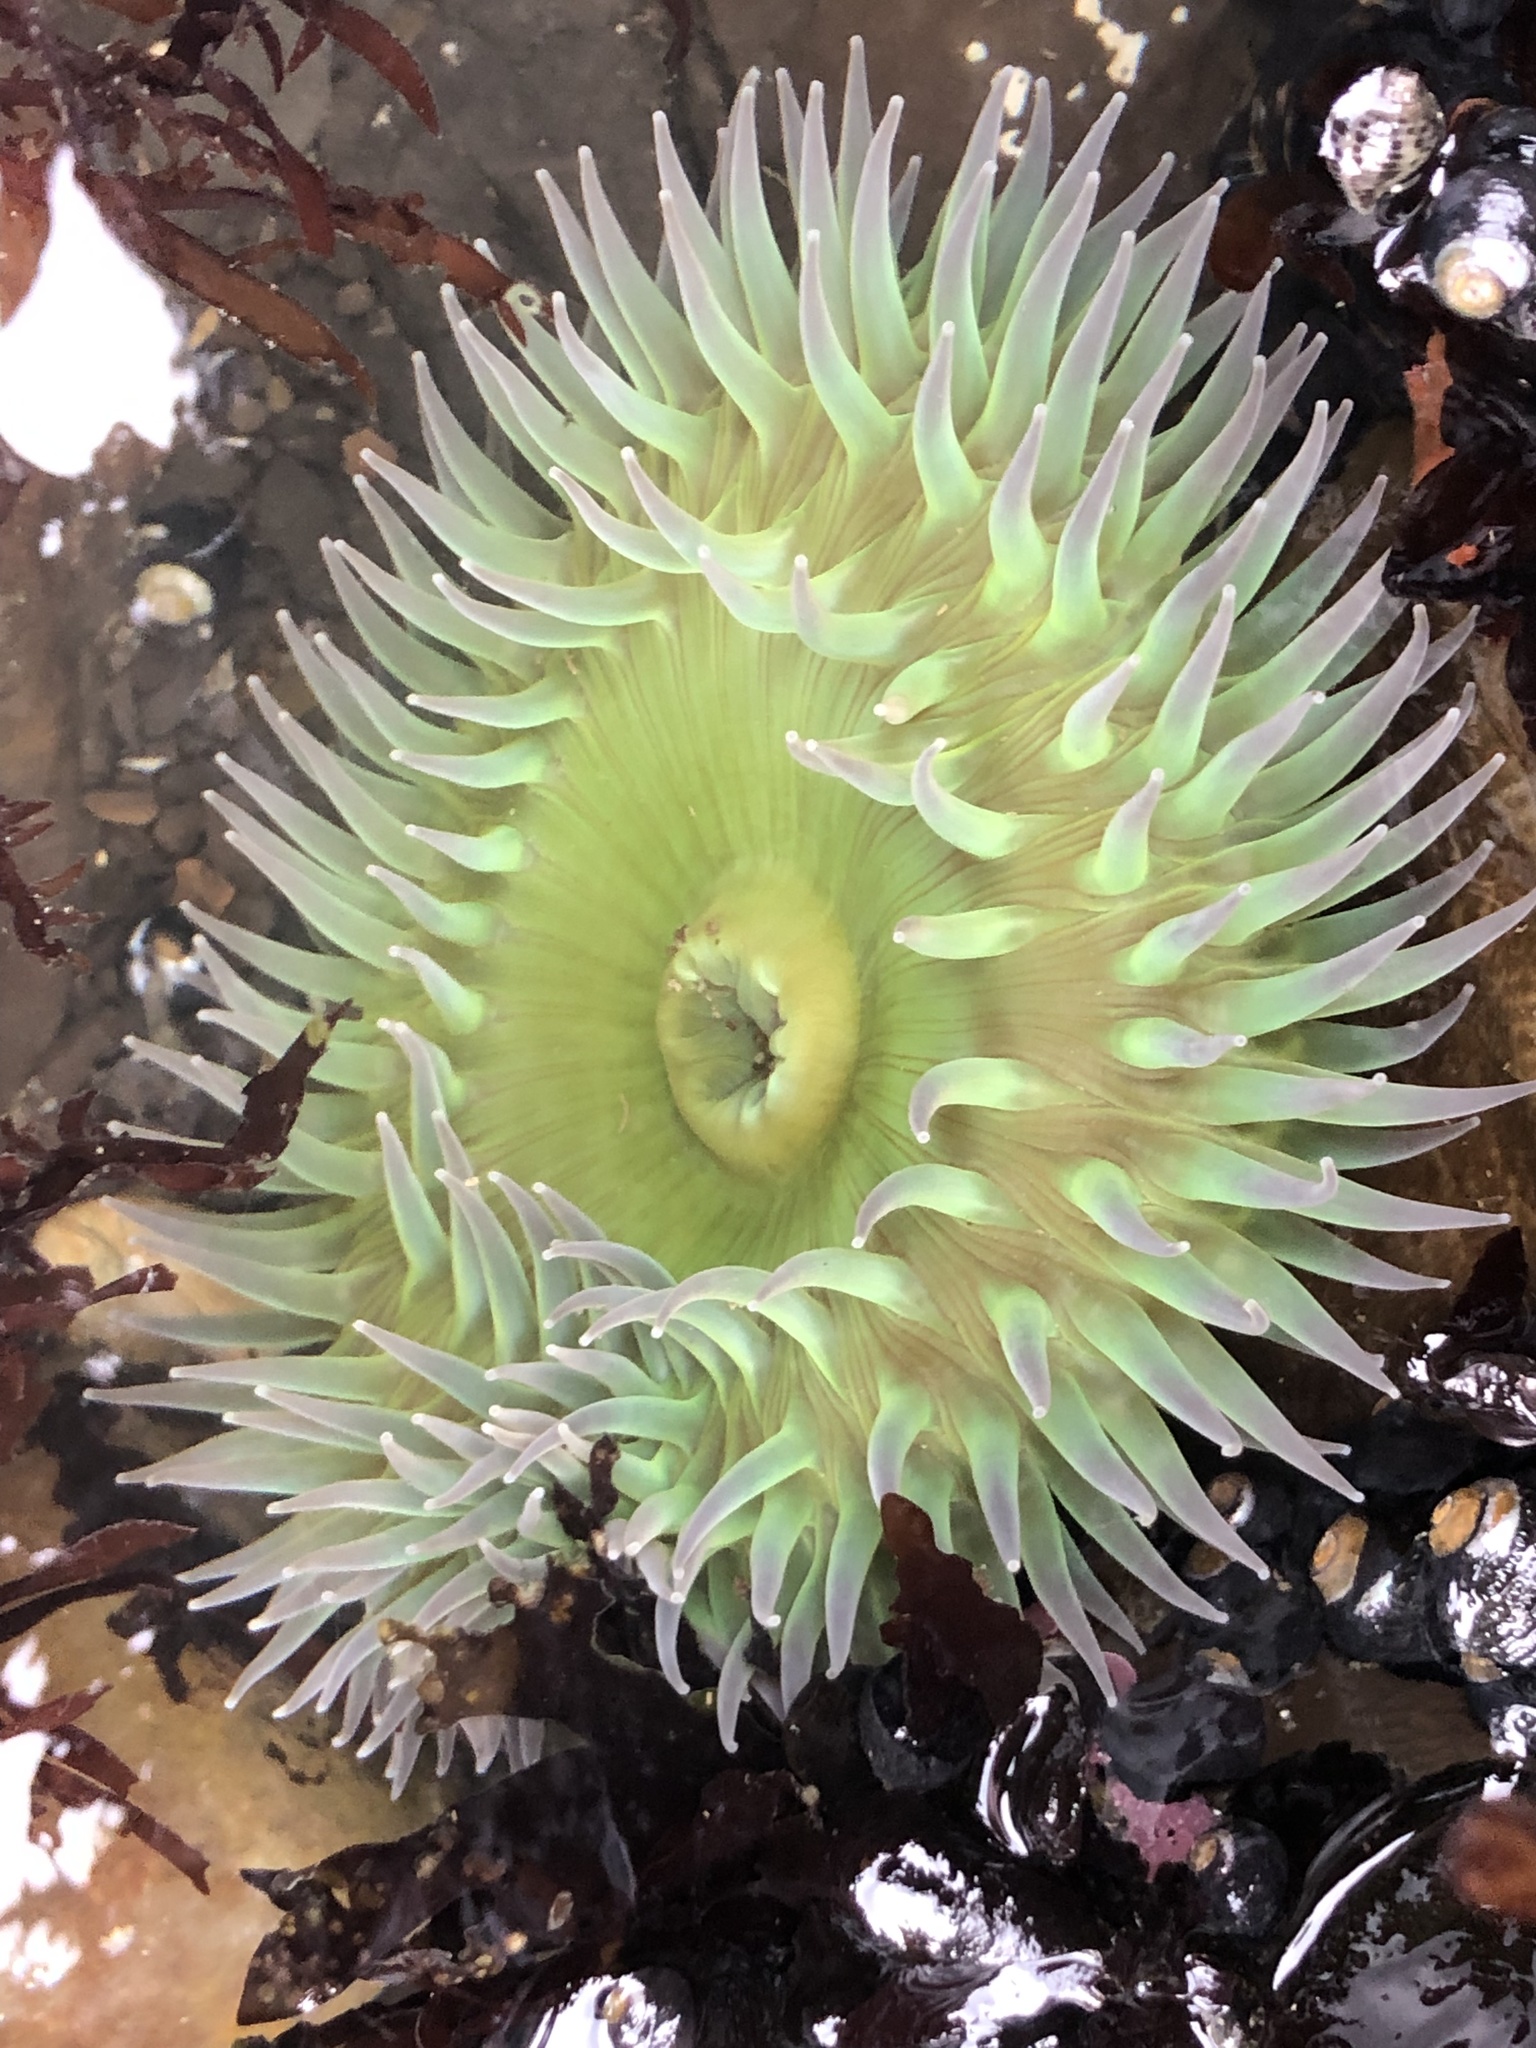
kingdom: Animalia
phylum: Cnidaria
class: Anthozoa
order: Actiniaria
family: Actiniidae
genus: Anthopleura
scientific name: Anthopleura xanthogrammica
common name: Giant green anemone
